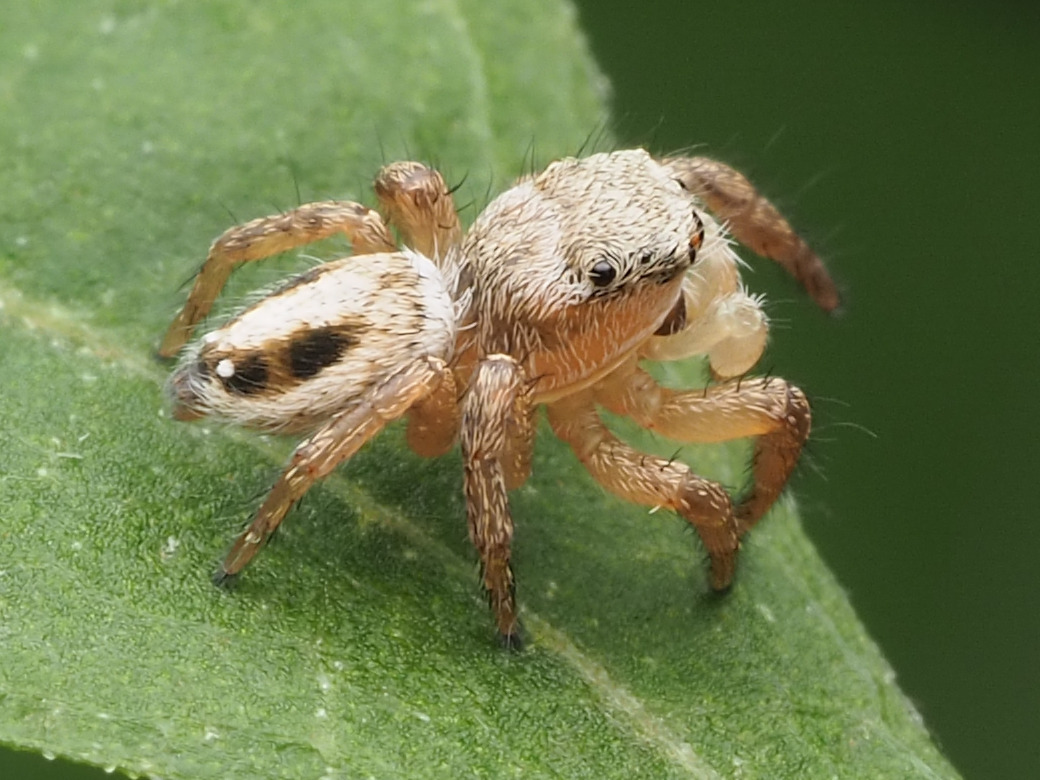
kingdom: Animalia
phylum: Arthropoda
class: Arachnida
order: Araneae
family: Salticidae
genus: Habronattus
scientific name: Habronattus decorus
